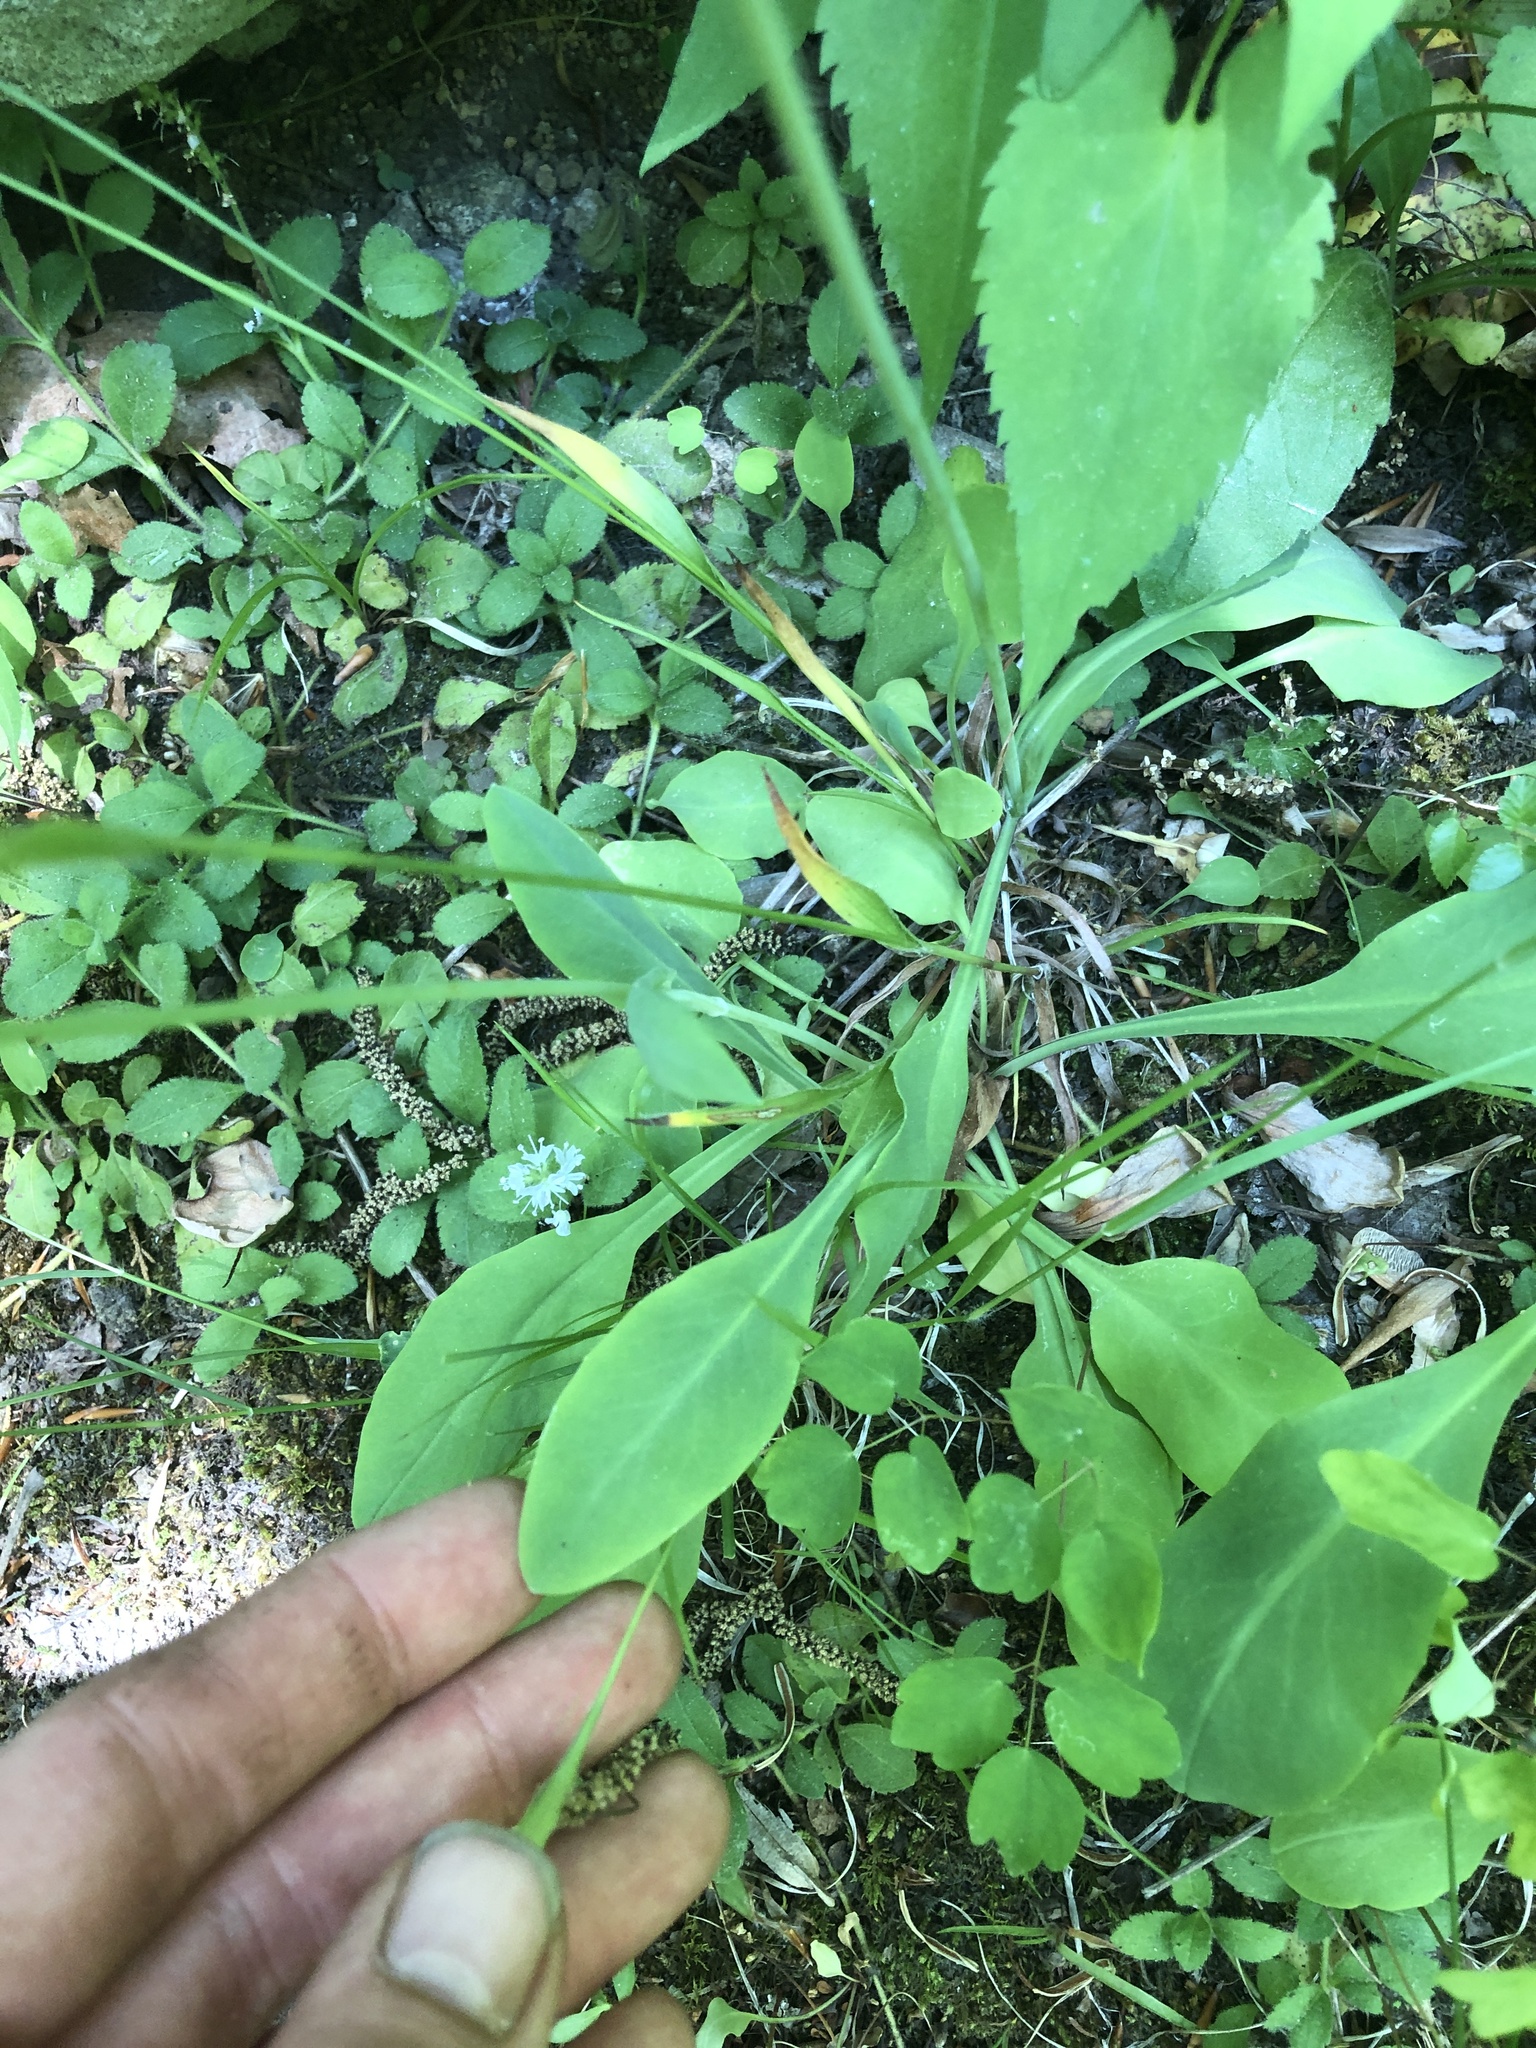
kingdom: Plantae
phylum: Tracheophyta
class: Magnoliopsida
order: Asterales
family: Asteraceae
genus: Krigia
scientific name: Krigia biflora
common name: Orange dwarf-dandelion
